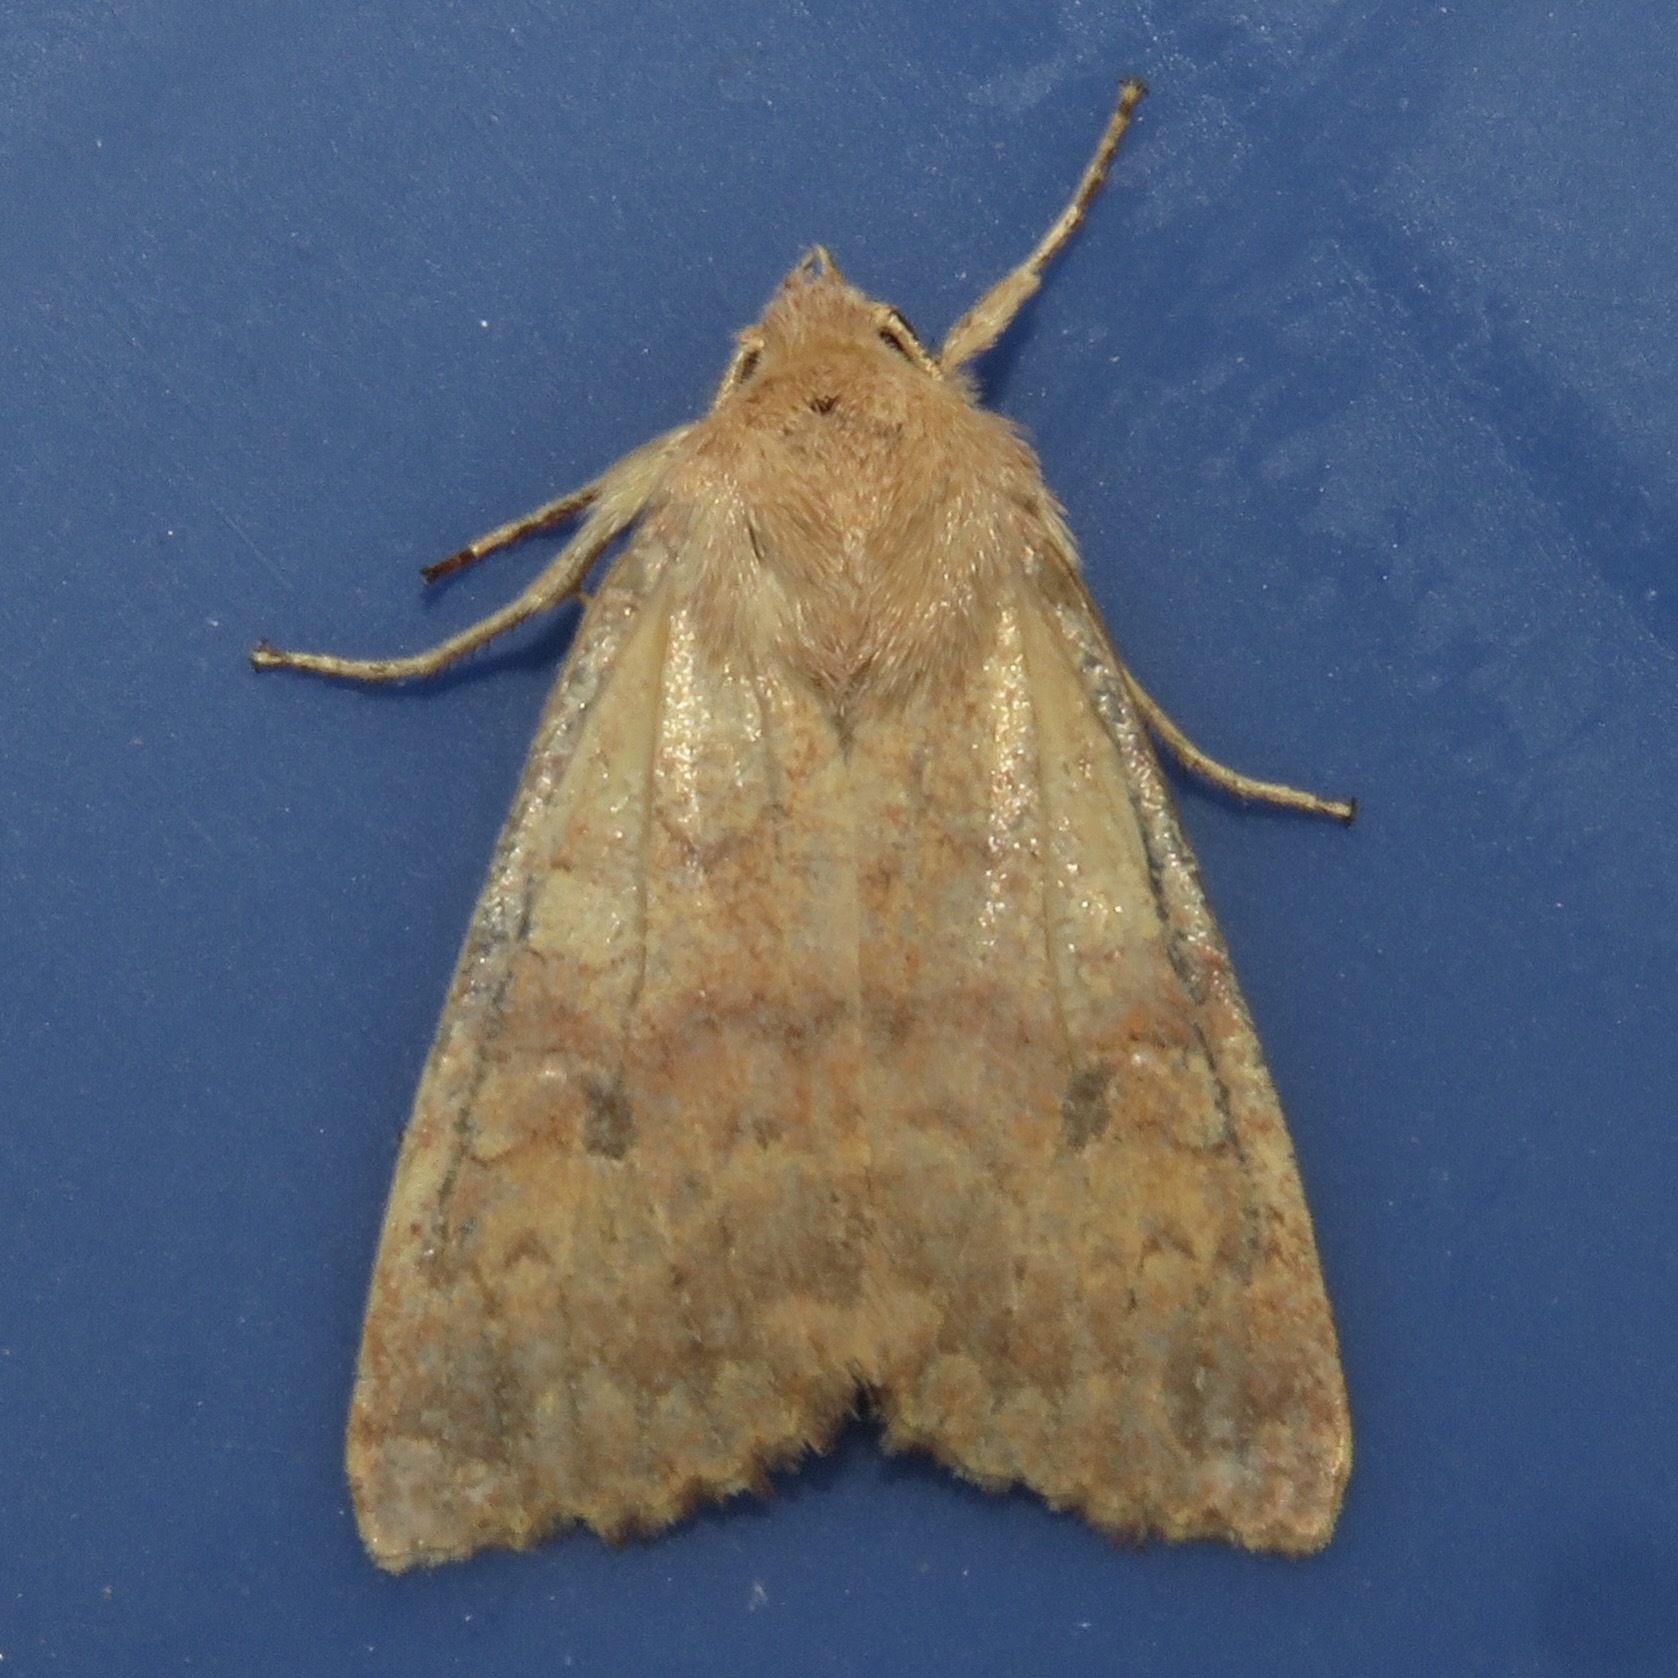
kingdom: Animalia
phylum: Arthropoda
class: Insecta
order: Lepidoptera
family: Noctuidae
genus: Agrochola
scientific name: Agrochola bicolorago
